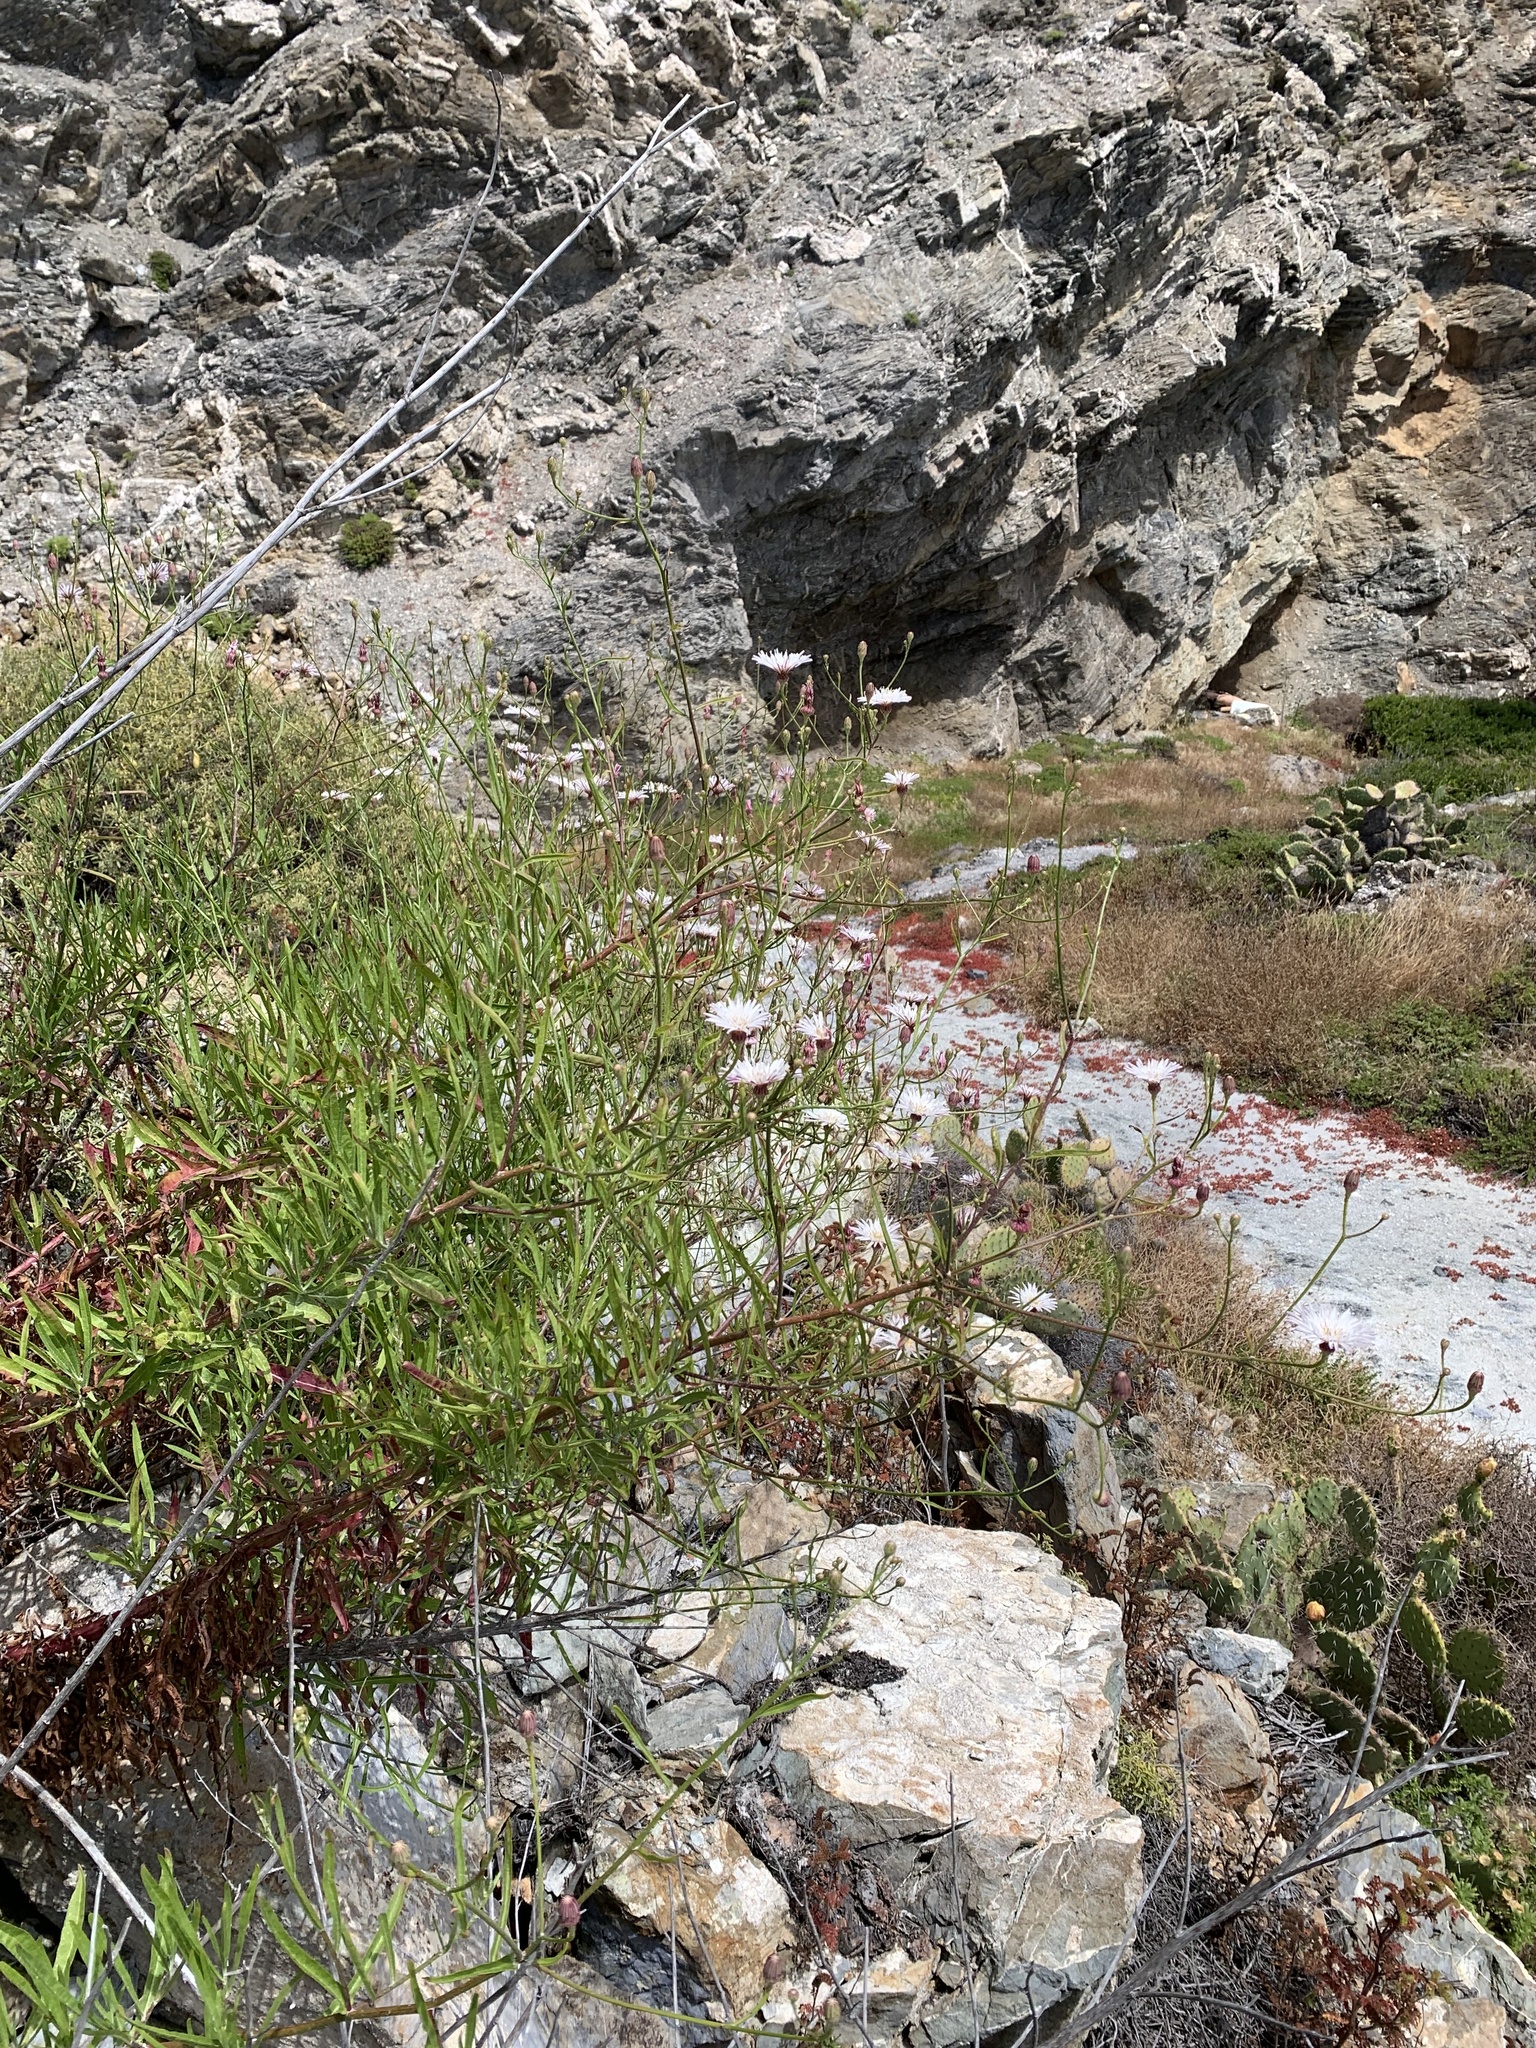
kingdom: Plantae
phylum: Tracheophyta
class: Magnoliopsida
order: Asterales
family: Asteraceae
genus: Malacothrix
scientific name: Malacothrix saxatilis
